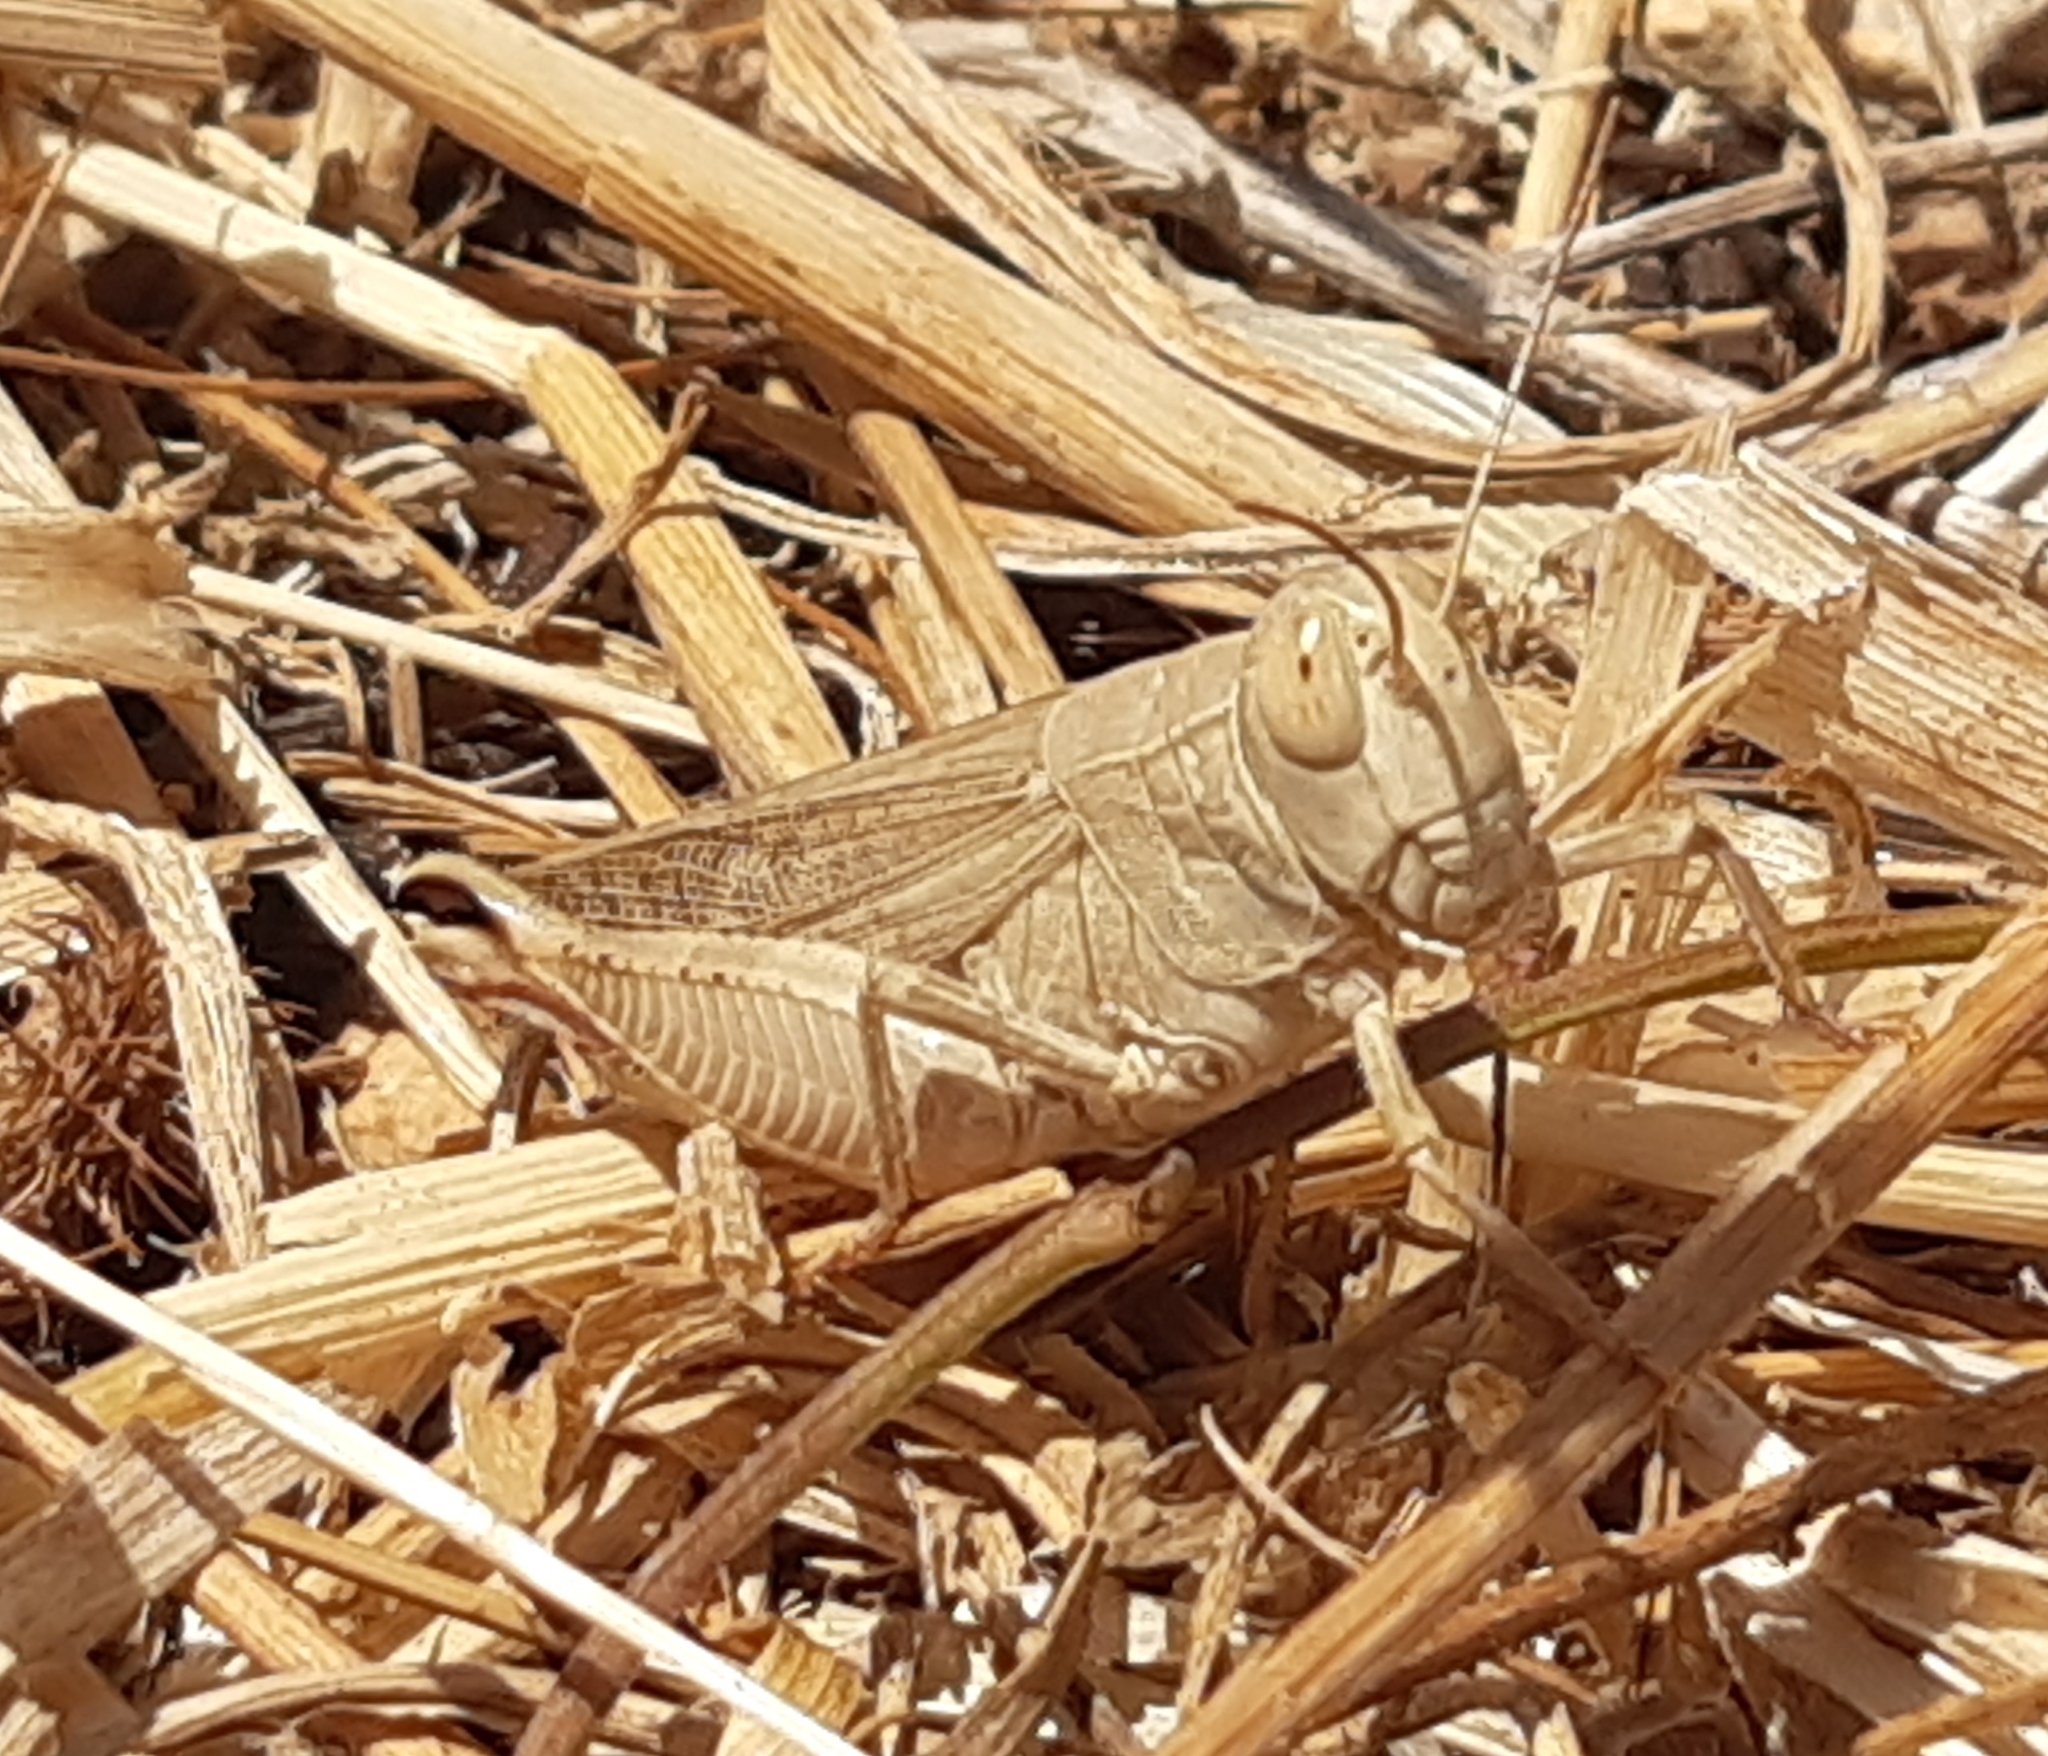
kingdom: Animalia
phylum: Arthropoda
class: Insecta
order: Orthoptera
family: Acrididae
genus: Calliptamus
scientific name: Calliptamus italicus
